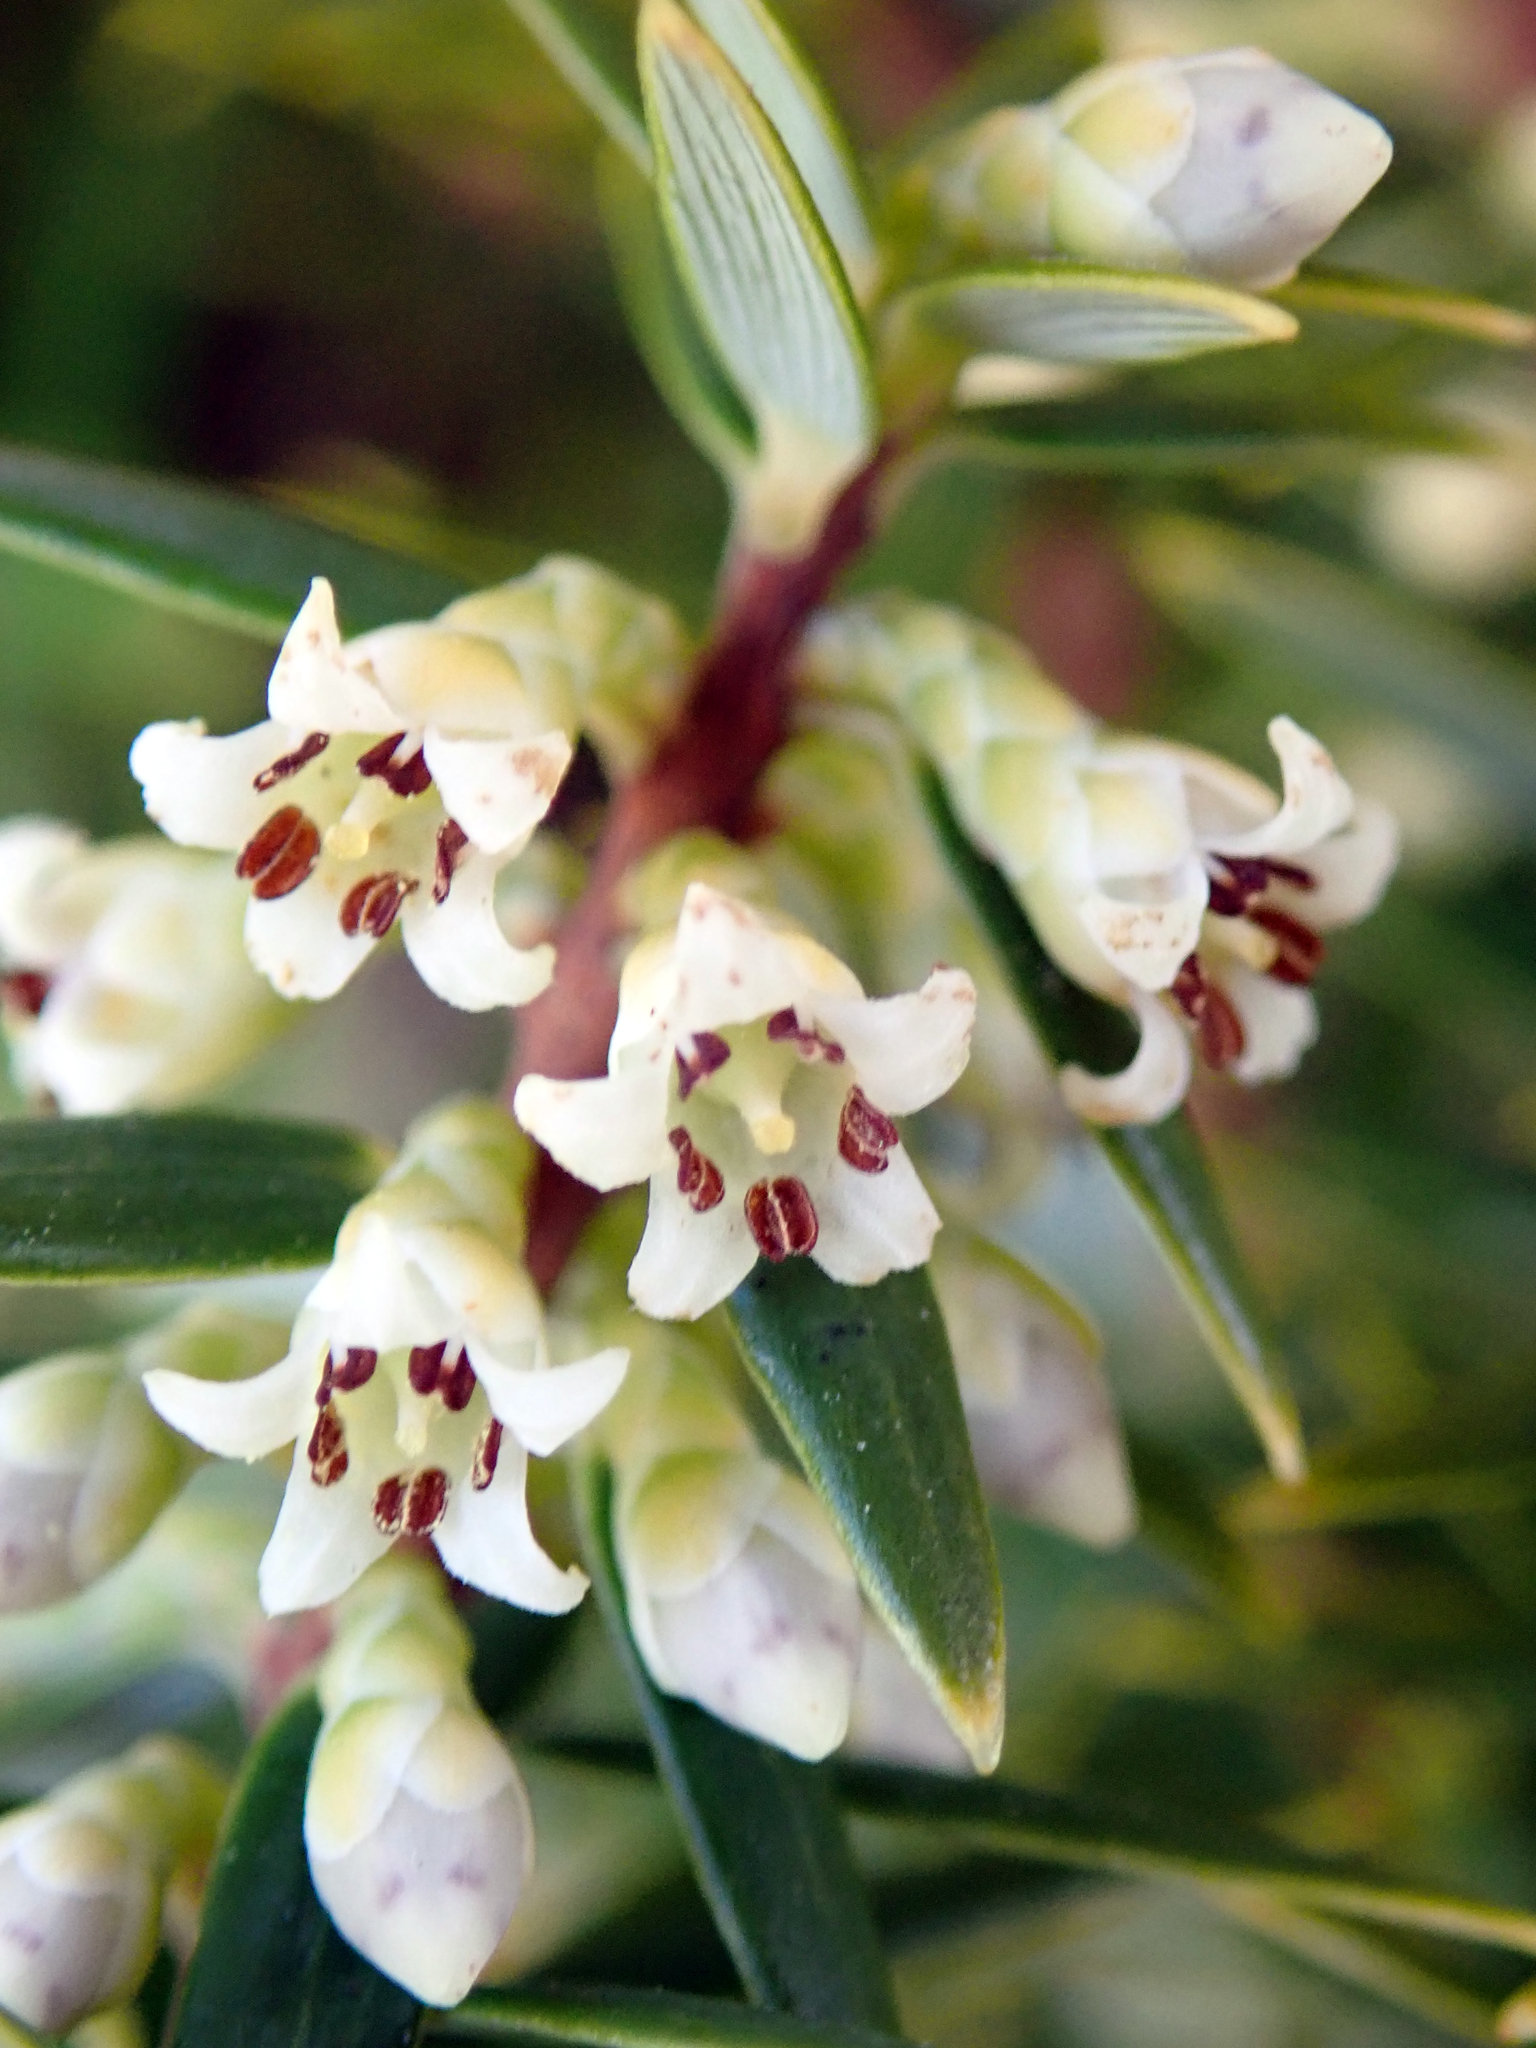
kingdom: Plantae
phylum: Tracheophyta
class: Magnoliopsida
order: Ericales
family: Ericaceae
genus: Leptecophylla
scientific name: Leptecophylla robusta
